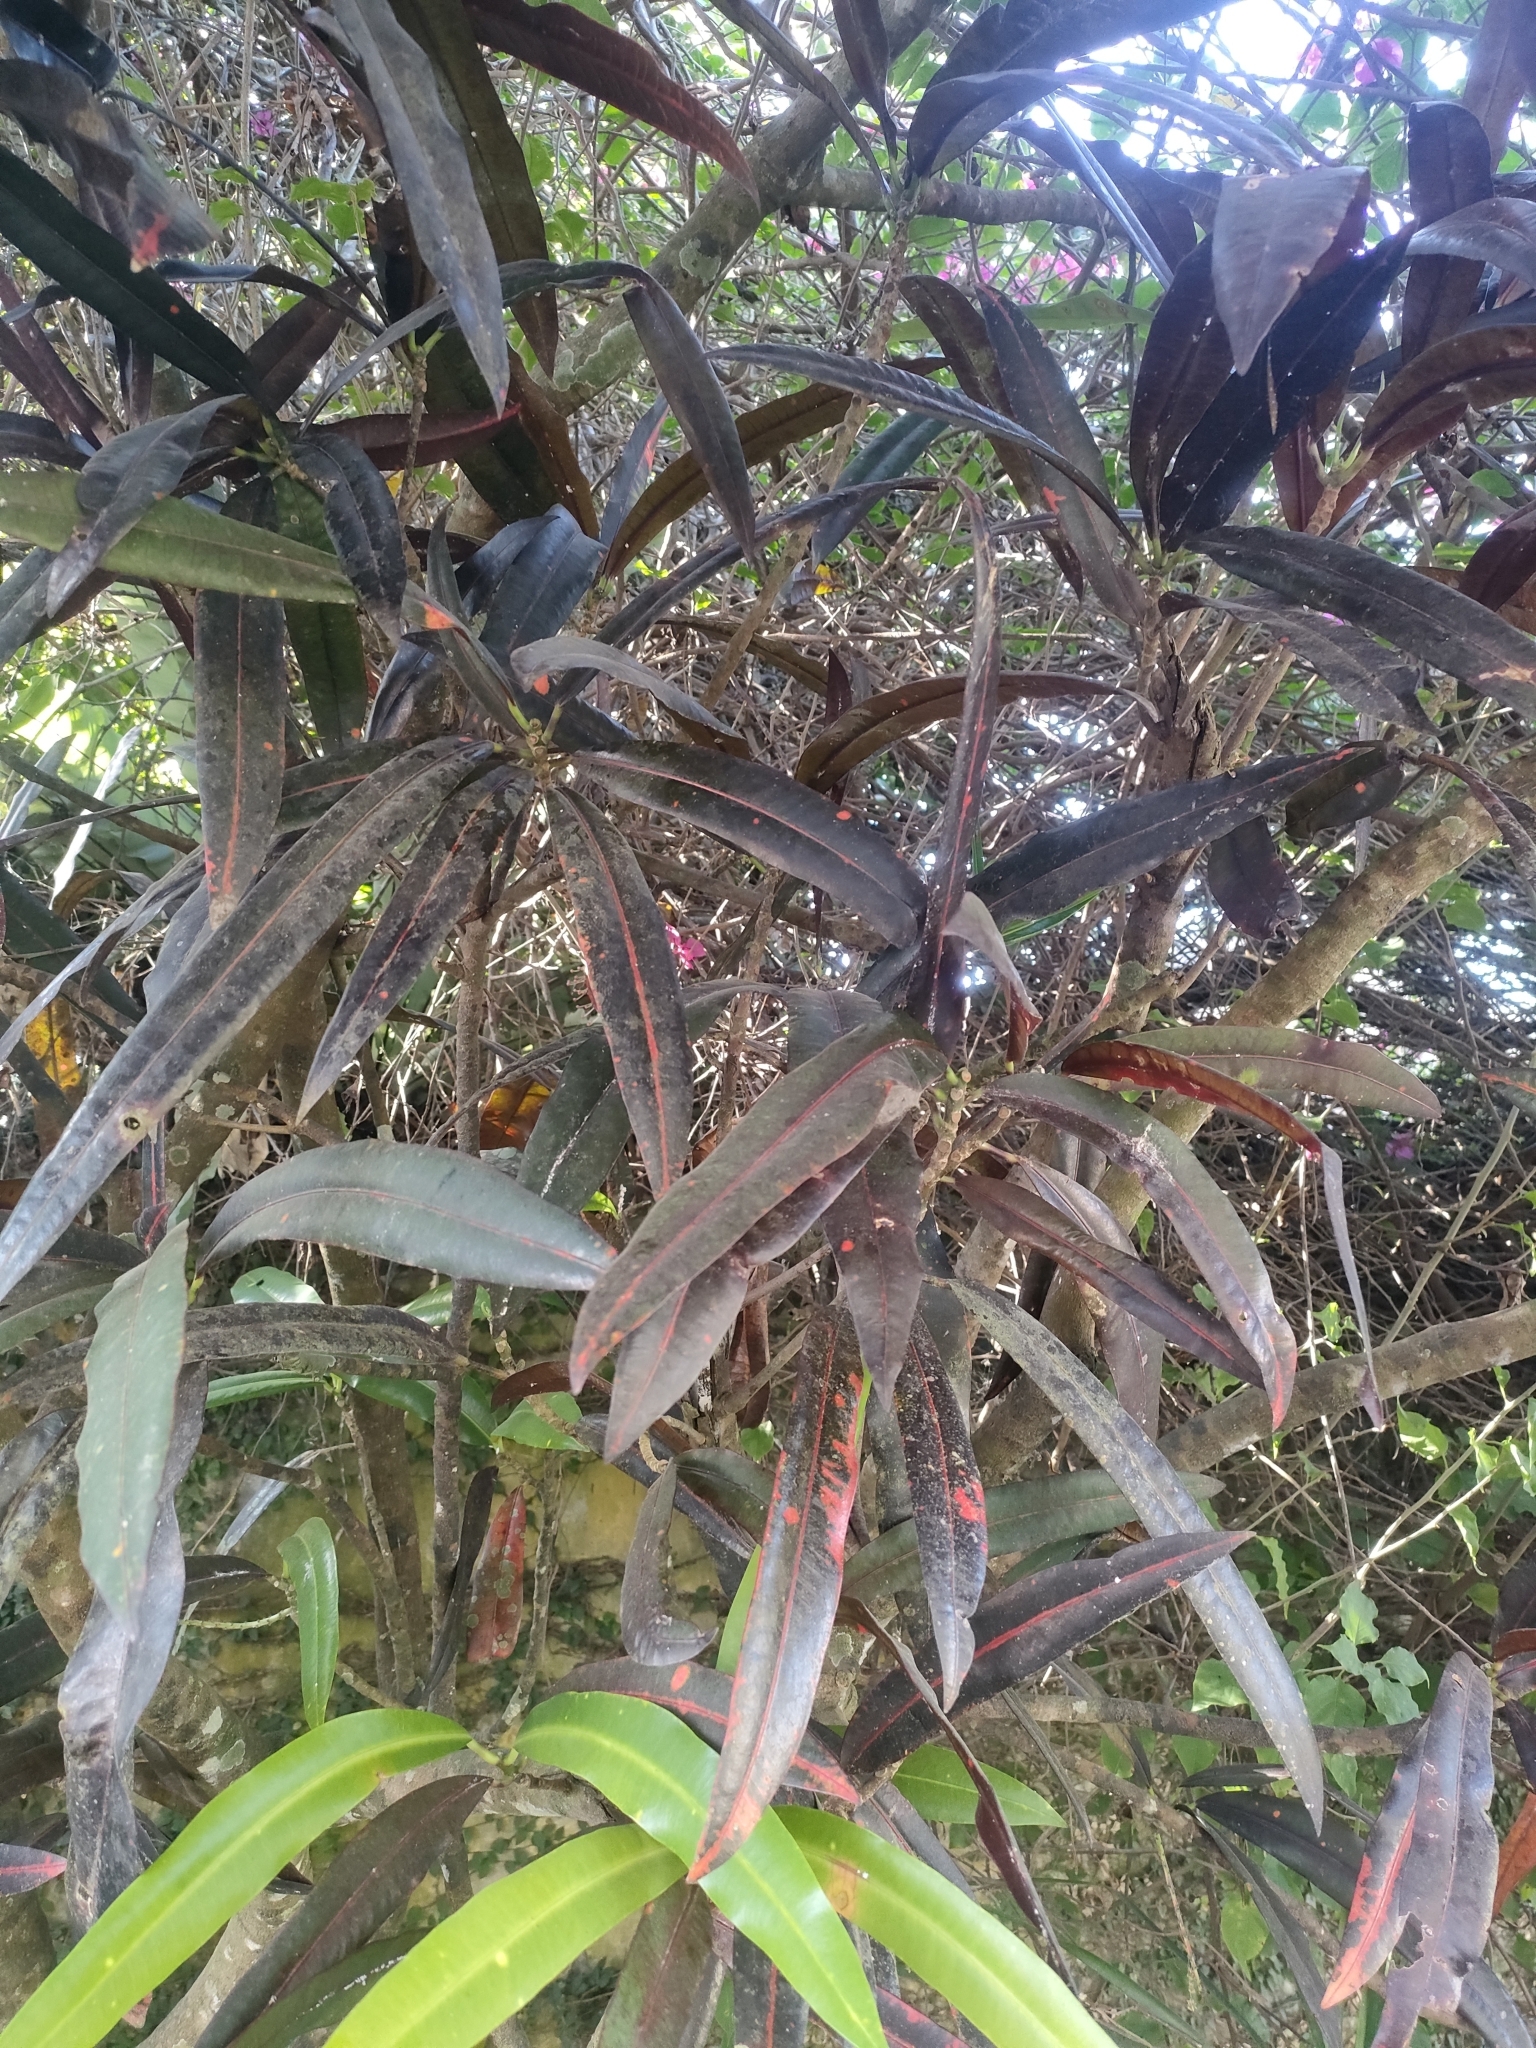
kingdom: Plantae
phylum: Tracheophyta
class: Magnoliopsida
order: Malpighiales
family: Euphorbiaceae
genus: Codiaeum
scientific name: Codiaeum variegatum
